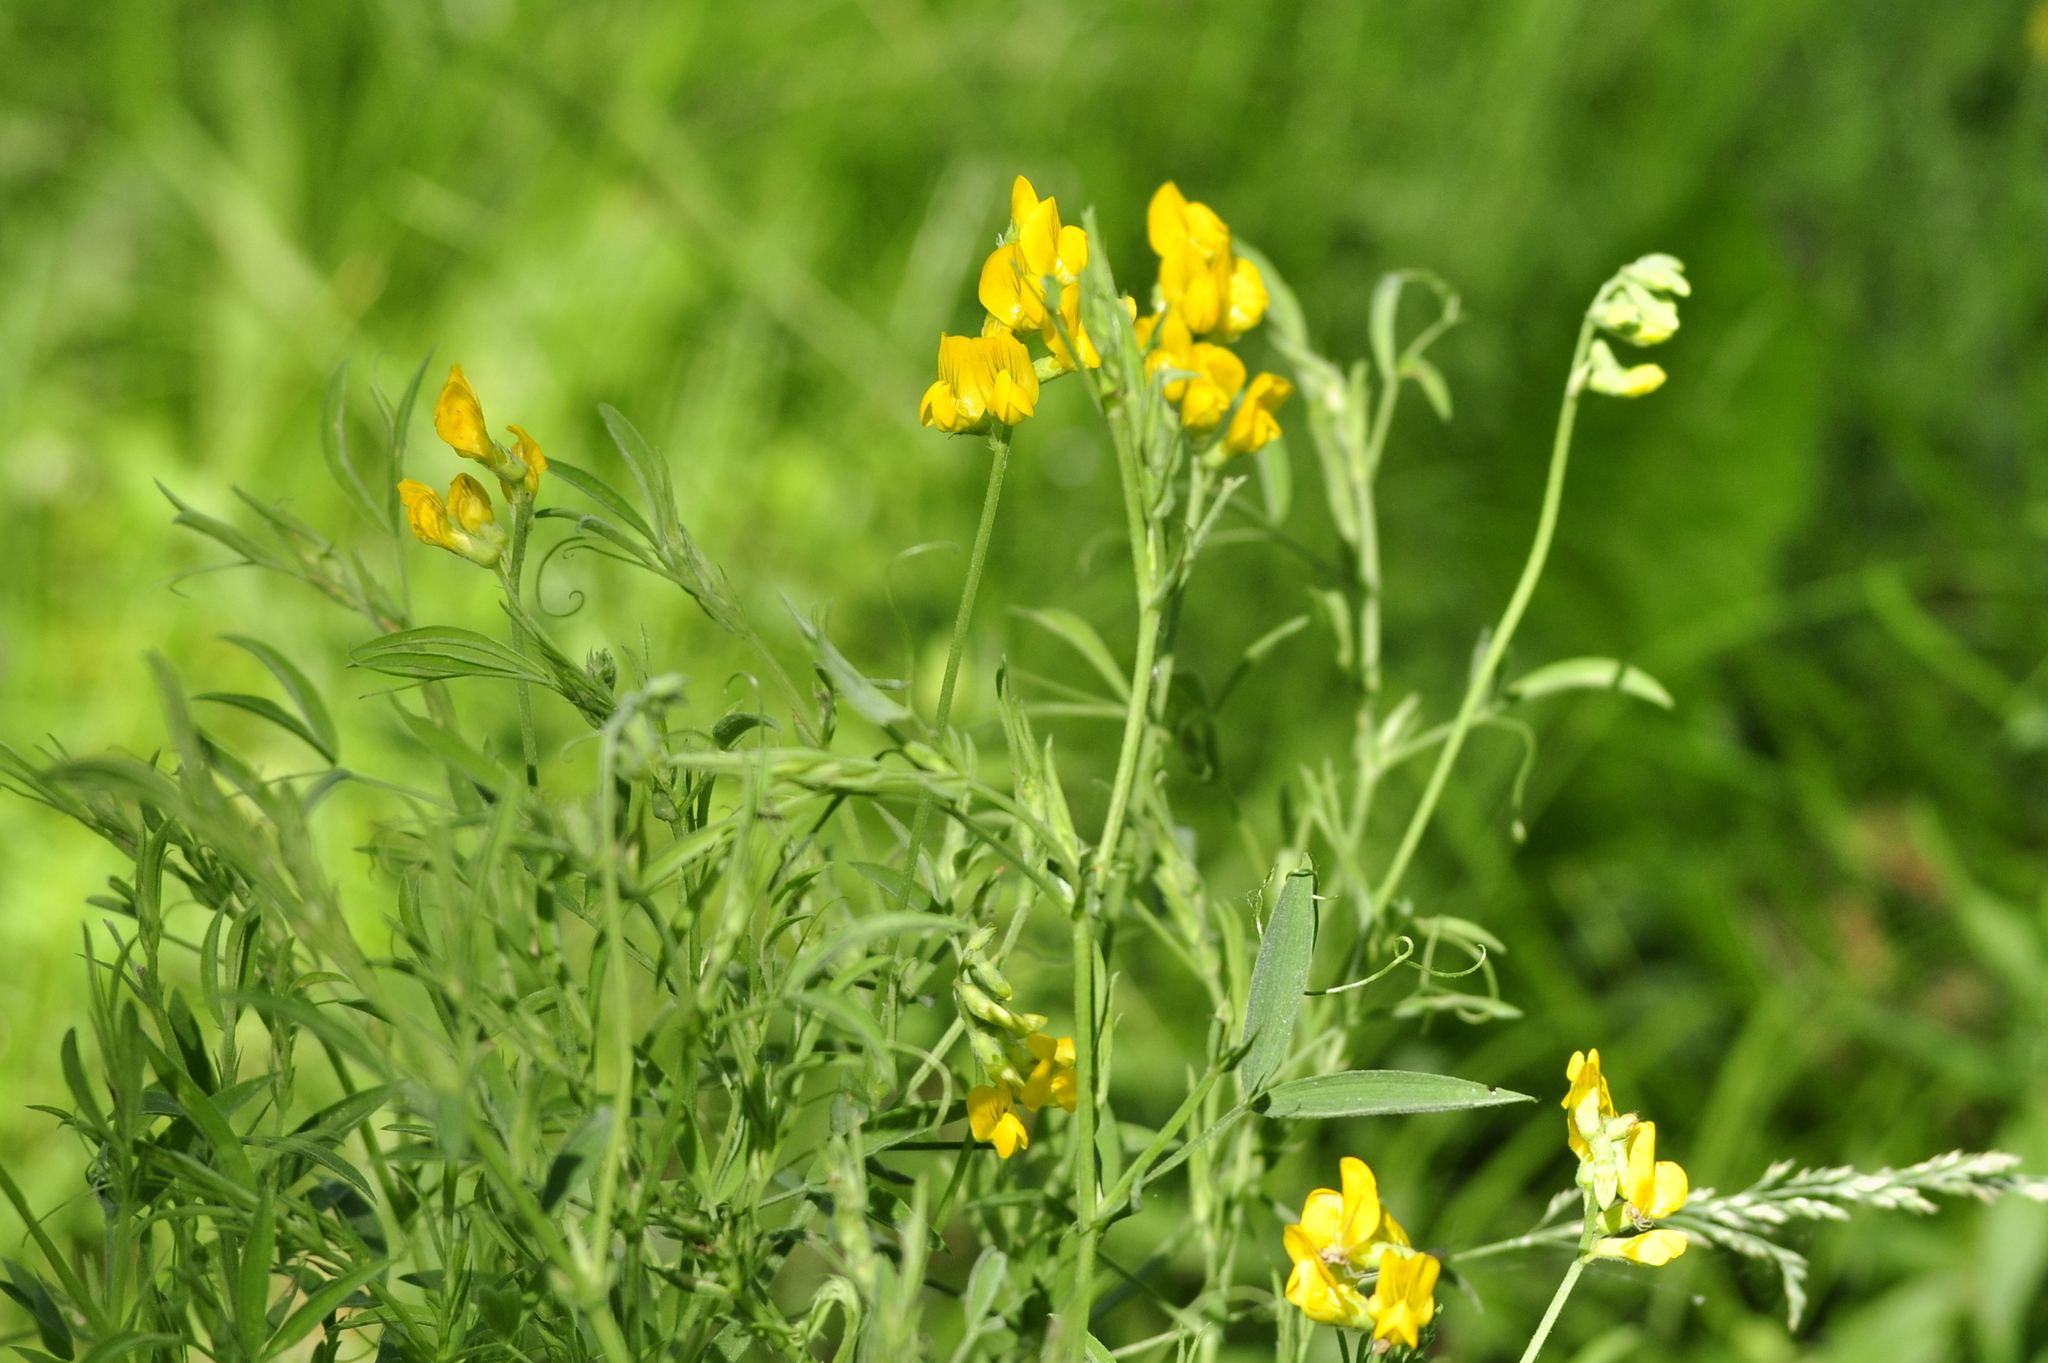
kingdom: Plantae
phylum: Tracheophyta
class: Magnoliopsida
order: Fabales
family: Fabaceae
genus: Lathyrus
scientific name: Lathyrus pratensis
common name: Meadow vetchling
